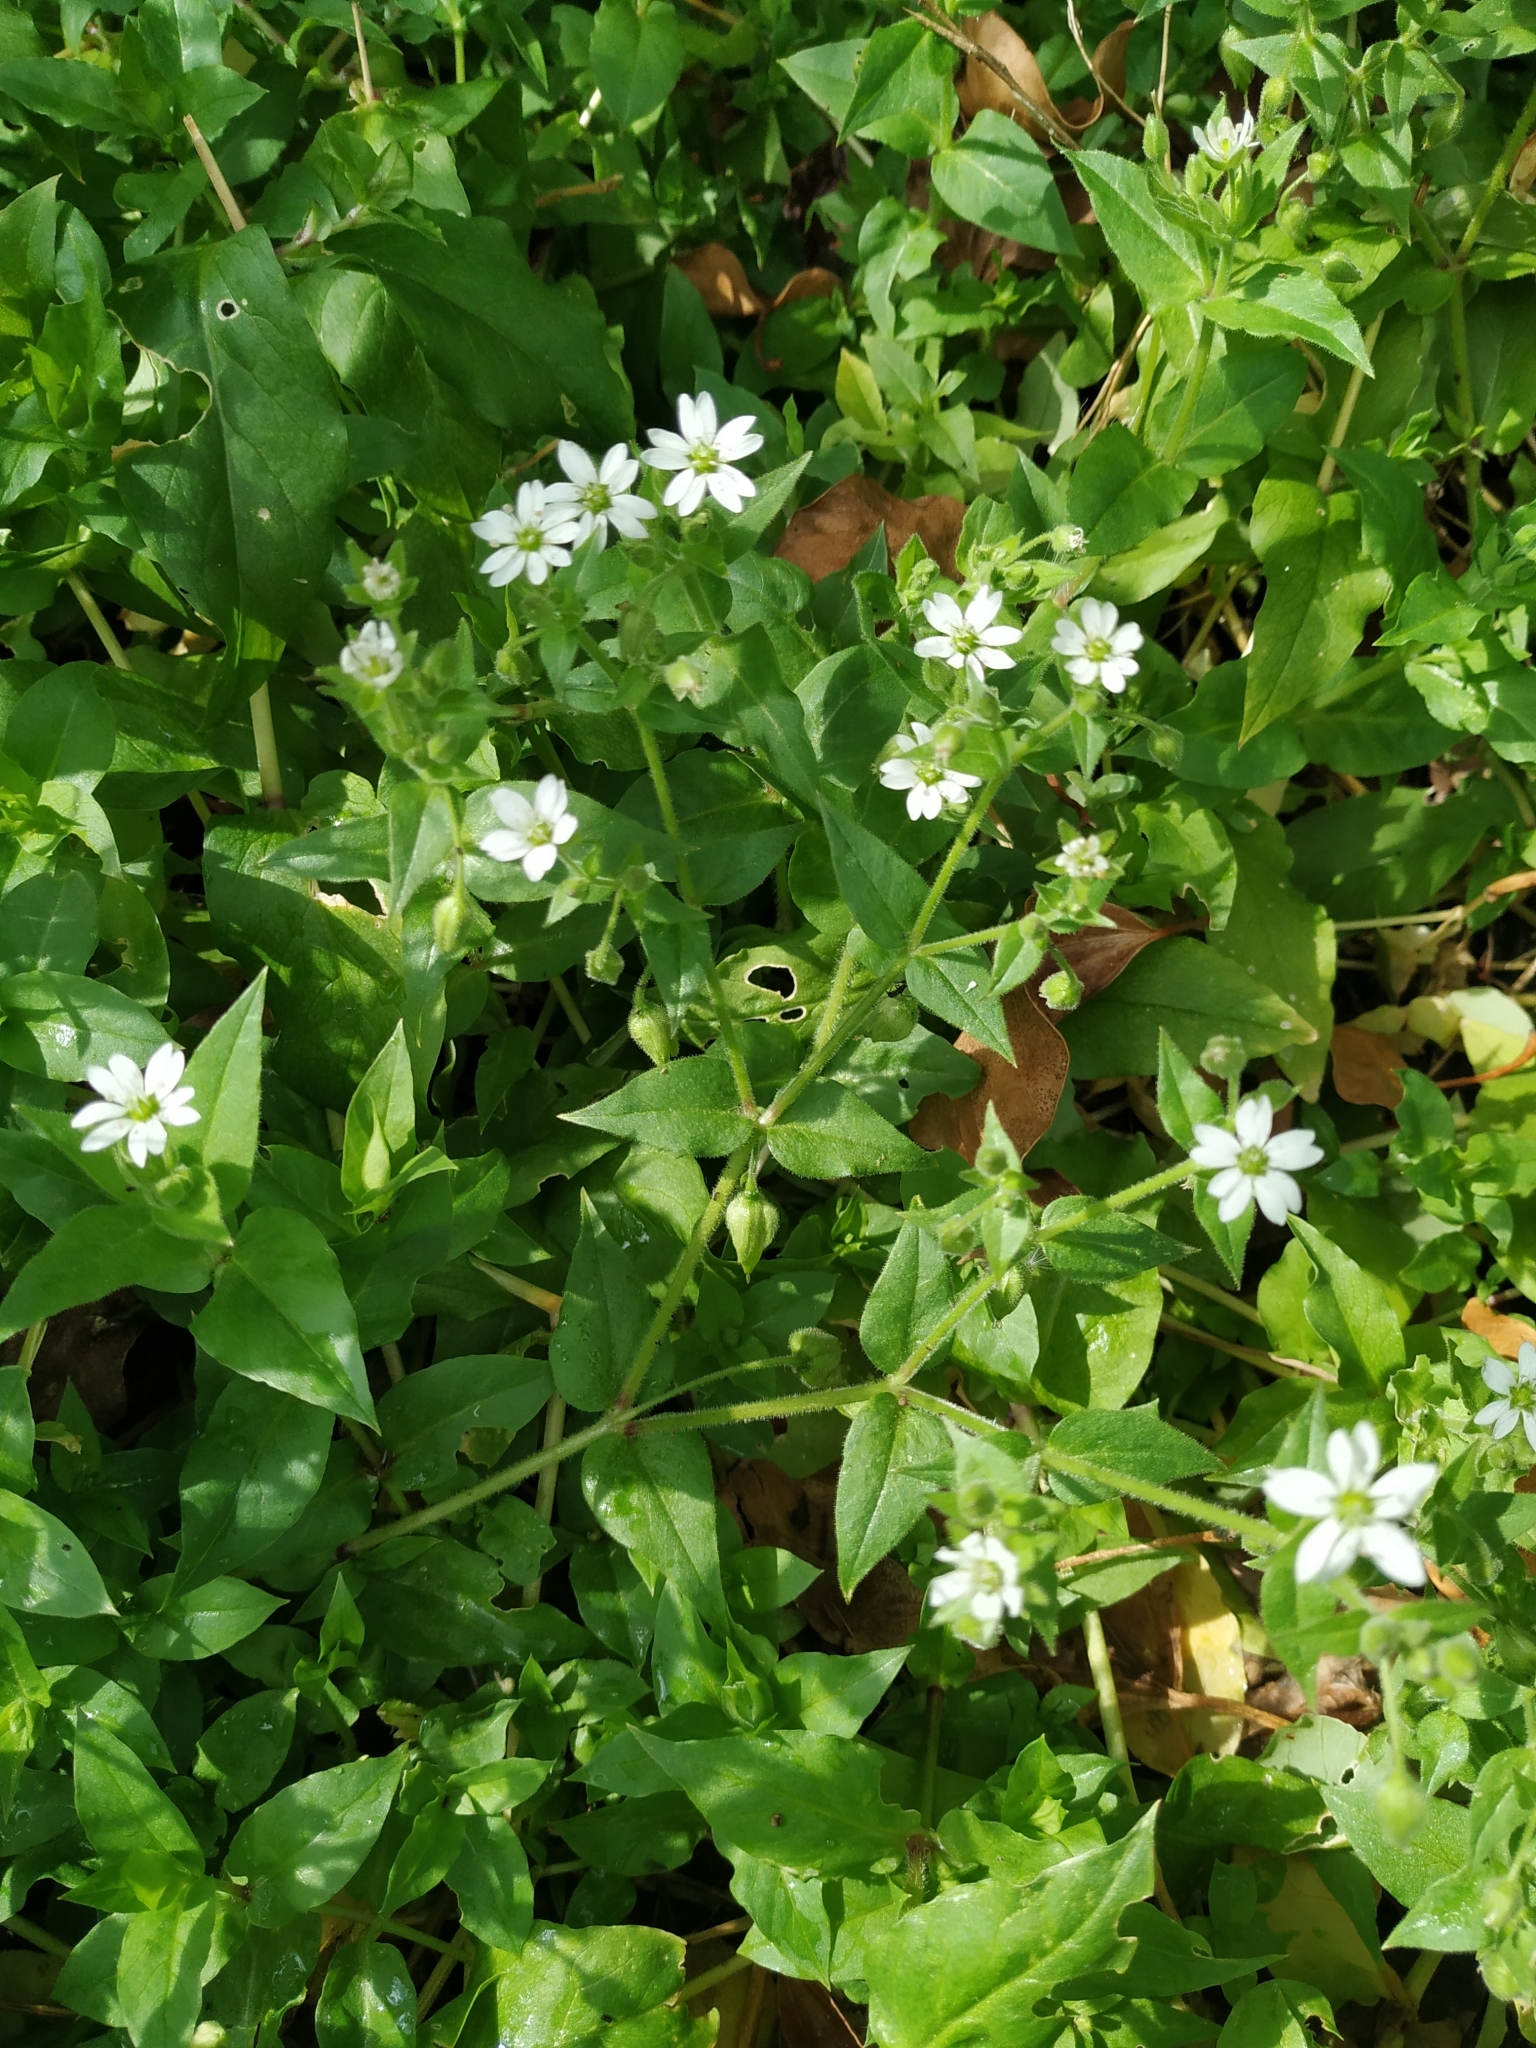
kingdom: Plantae
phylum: Tracheophyta
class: Magnoliopsida
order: Caryophyllales
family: Caryophyllaceae
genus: Stellaria
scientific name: Stellaria aquatica
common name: Water chickweed
